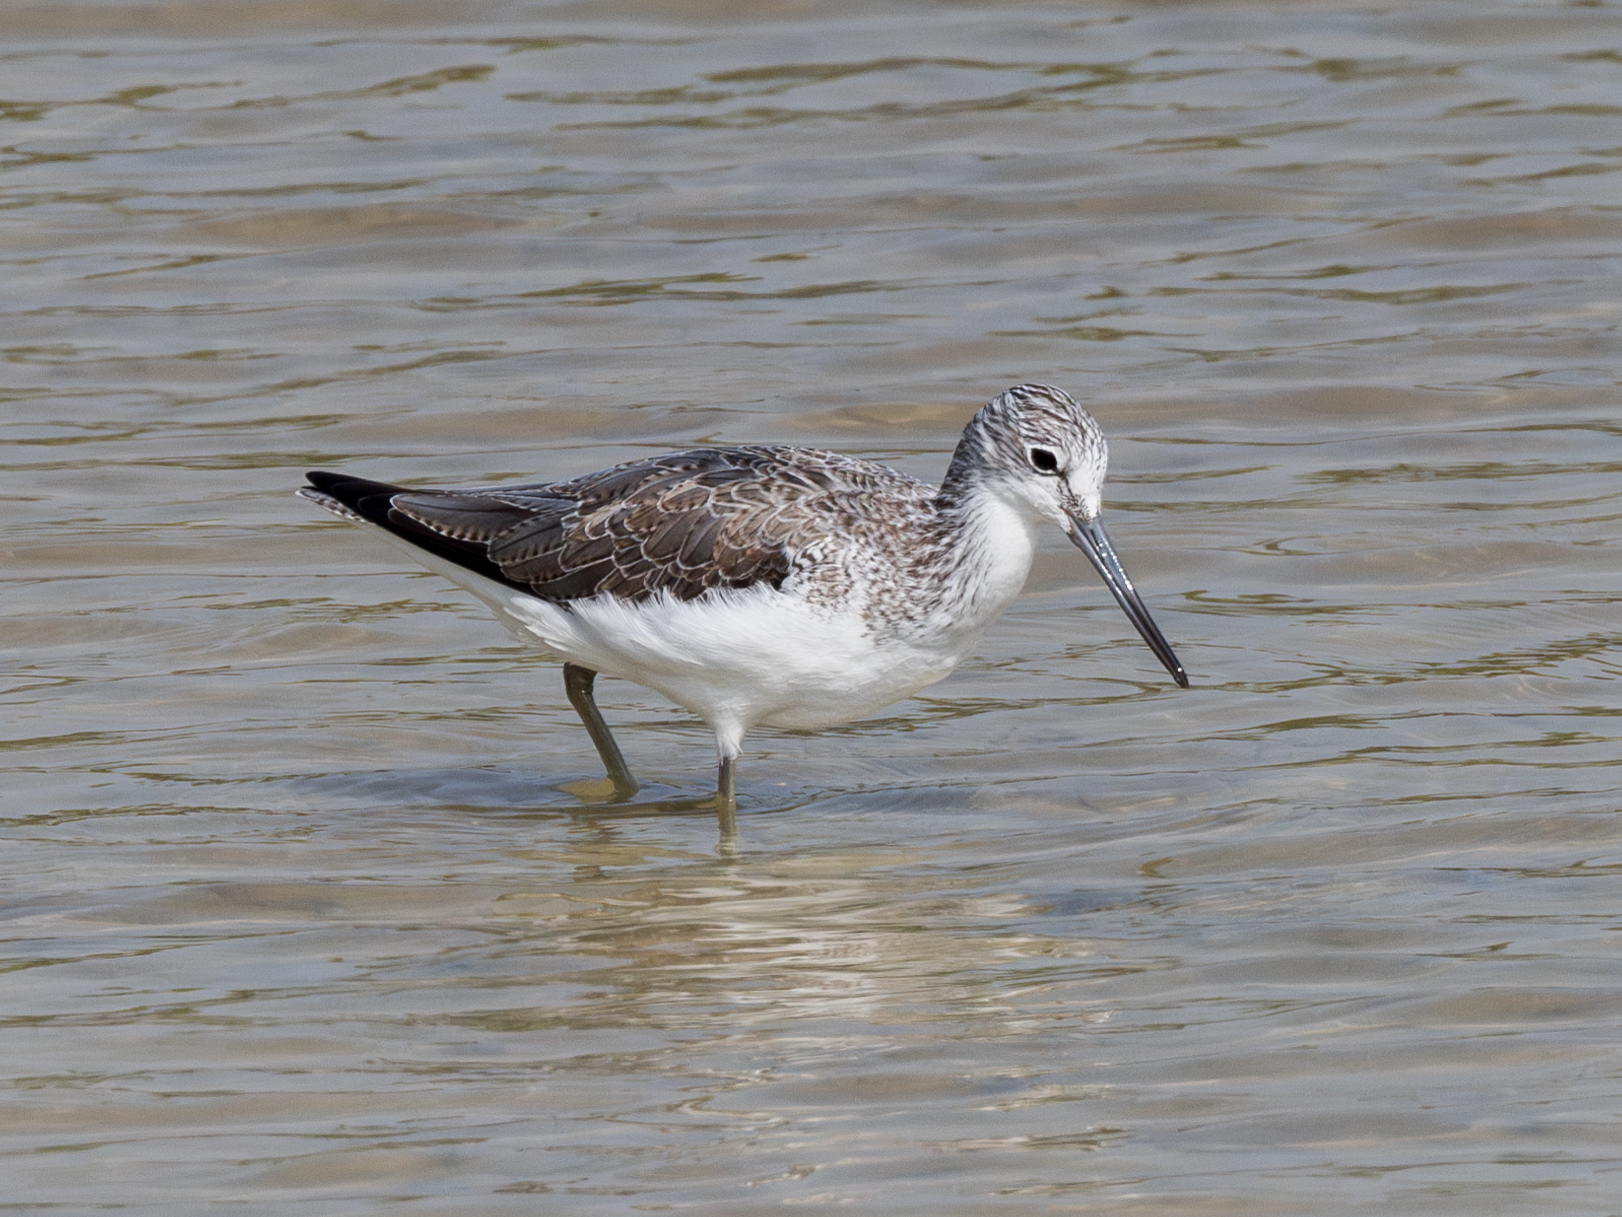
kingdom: Animalia
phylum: Chordata
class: Aves
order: Charadriiformes
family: Scolopacidae
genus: Tringa
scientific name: Tringa nebularia
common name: Common greenshank
